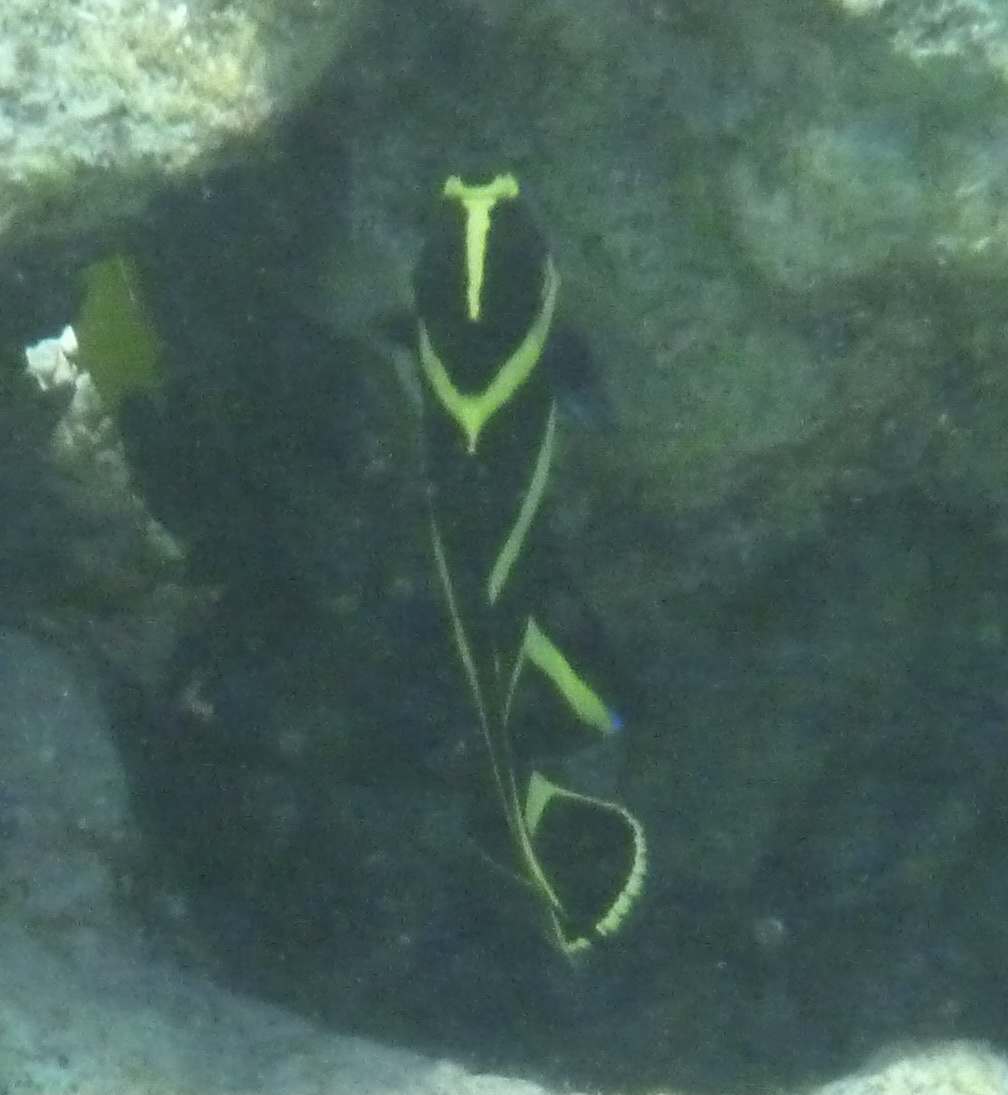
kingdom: Animalia
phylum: Chordata
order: Perciformes
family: Pomacanthidae
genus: Pomacanthus
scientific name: Pomacanthus paru
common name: French angelfish
